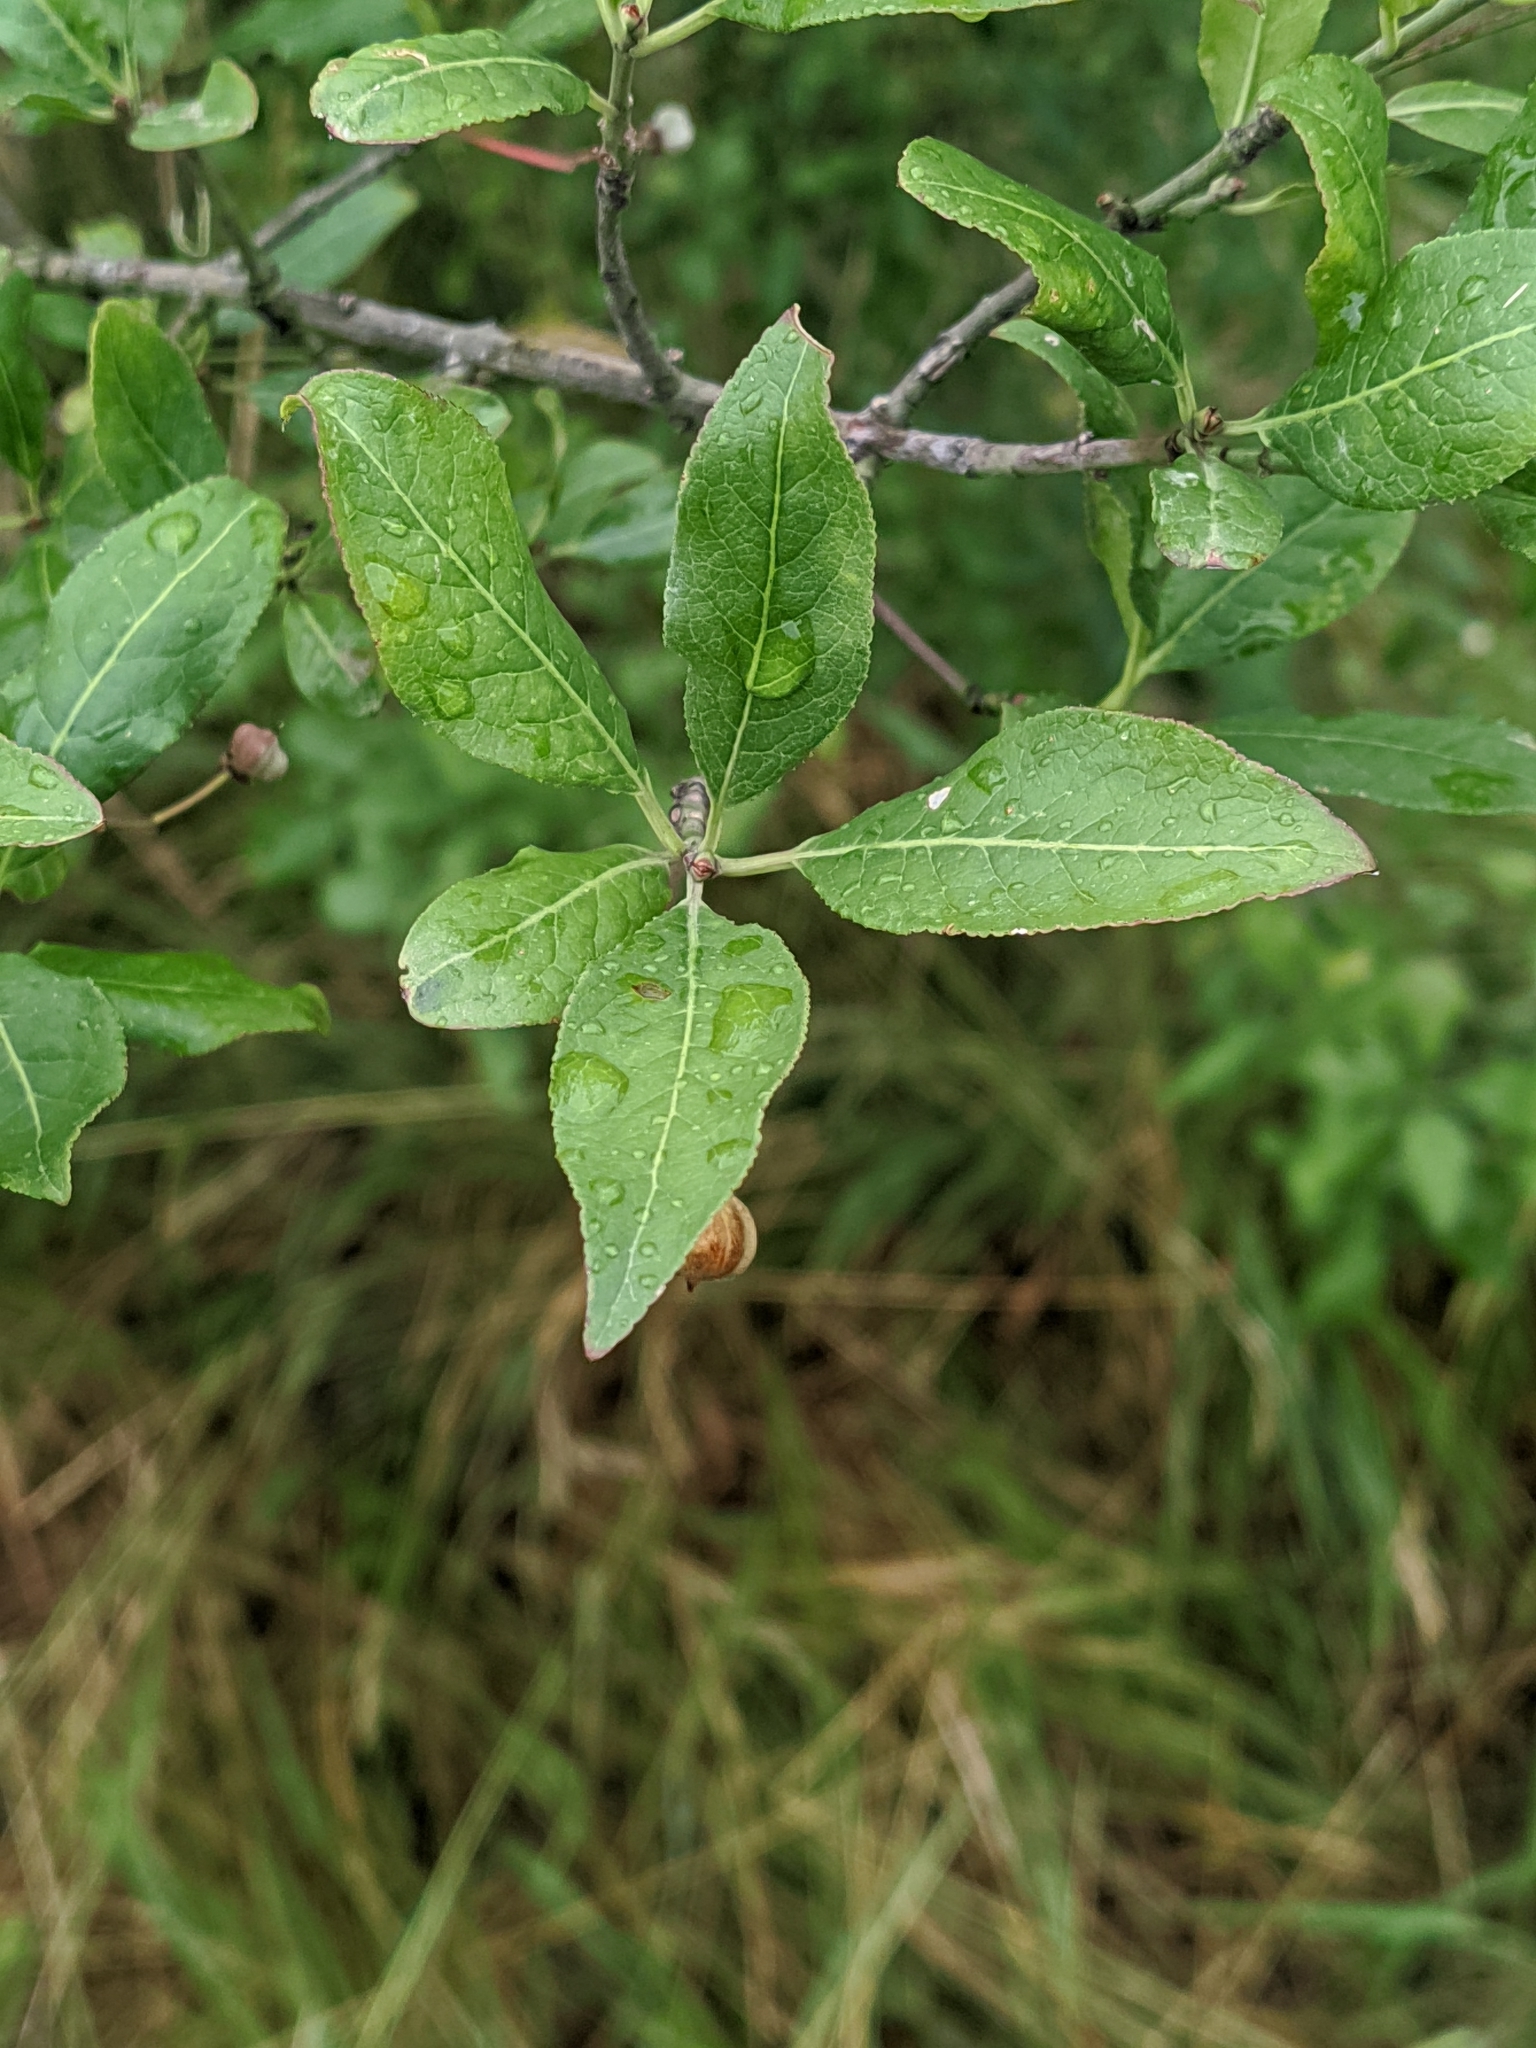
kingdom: Plantae
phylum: Tracheophyta
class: Magnoliopsida
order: Celastrales
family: Celastraceae
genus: Euonymus
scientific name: Euonymus europaeus
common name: Spindle
